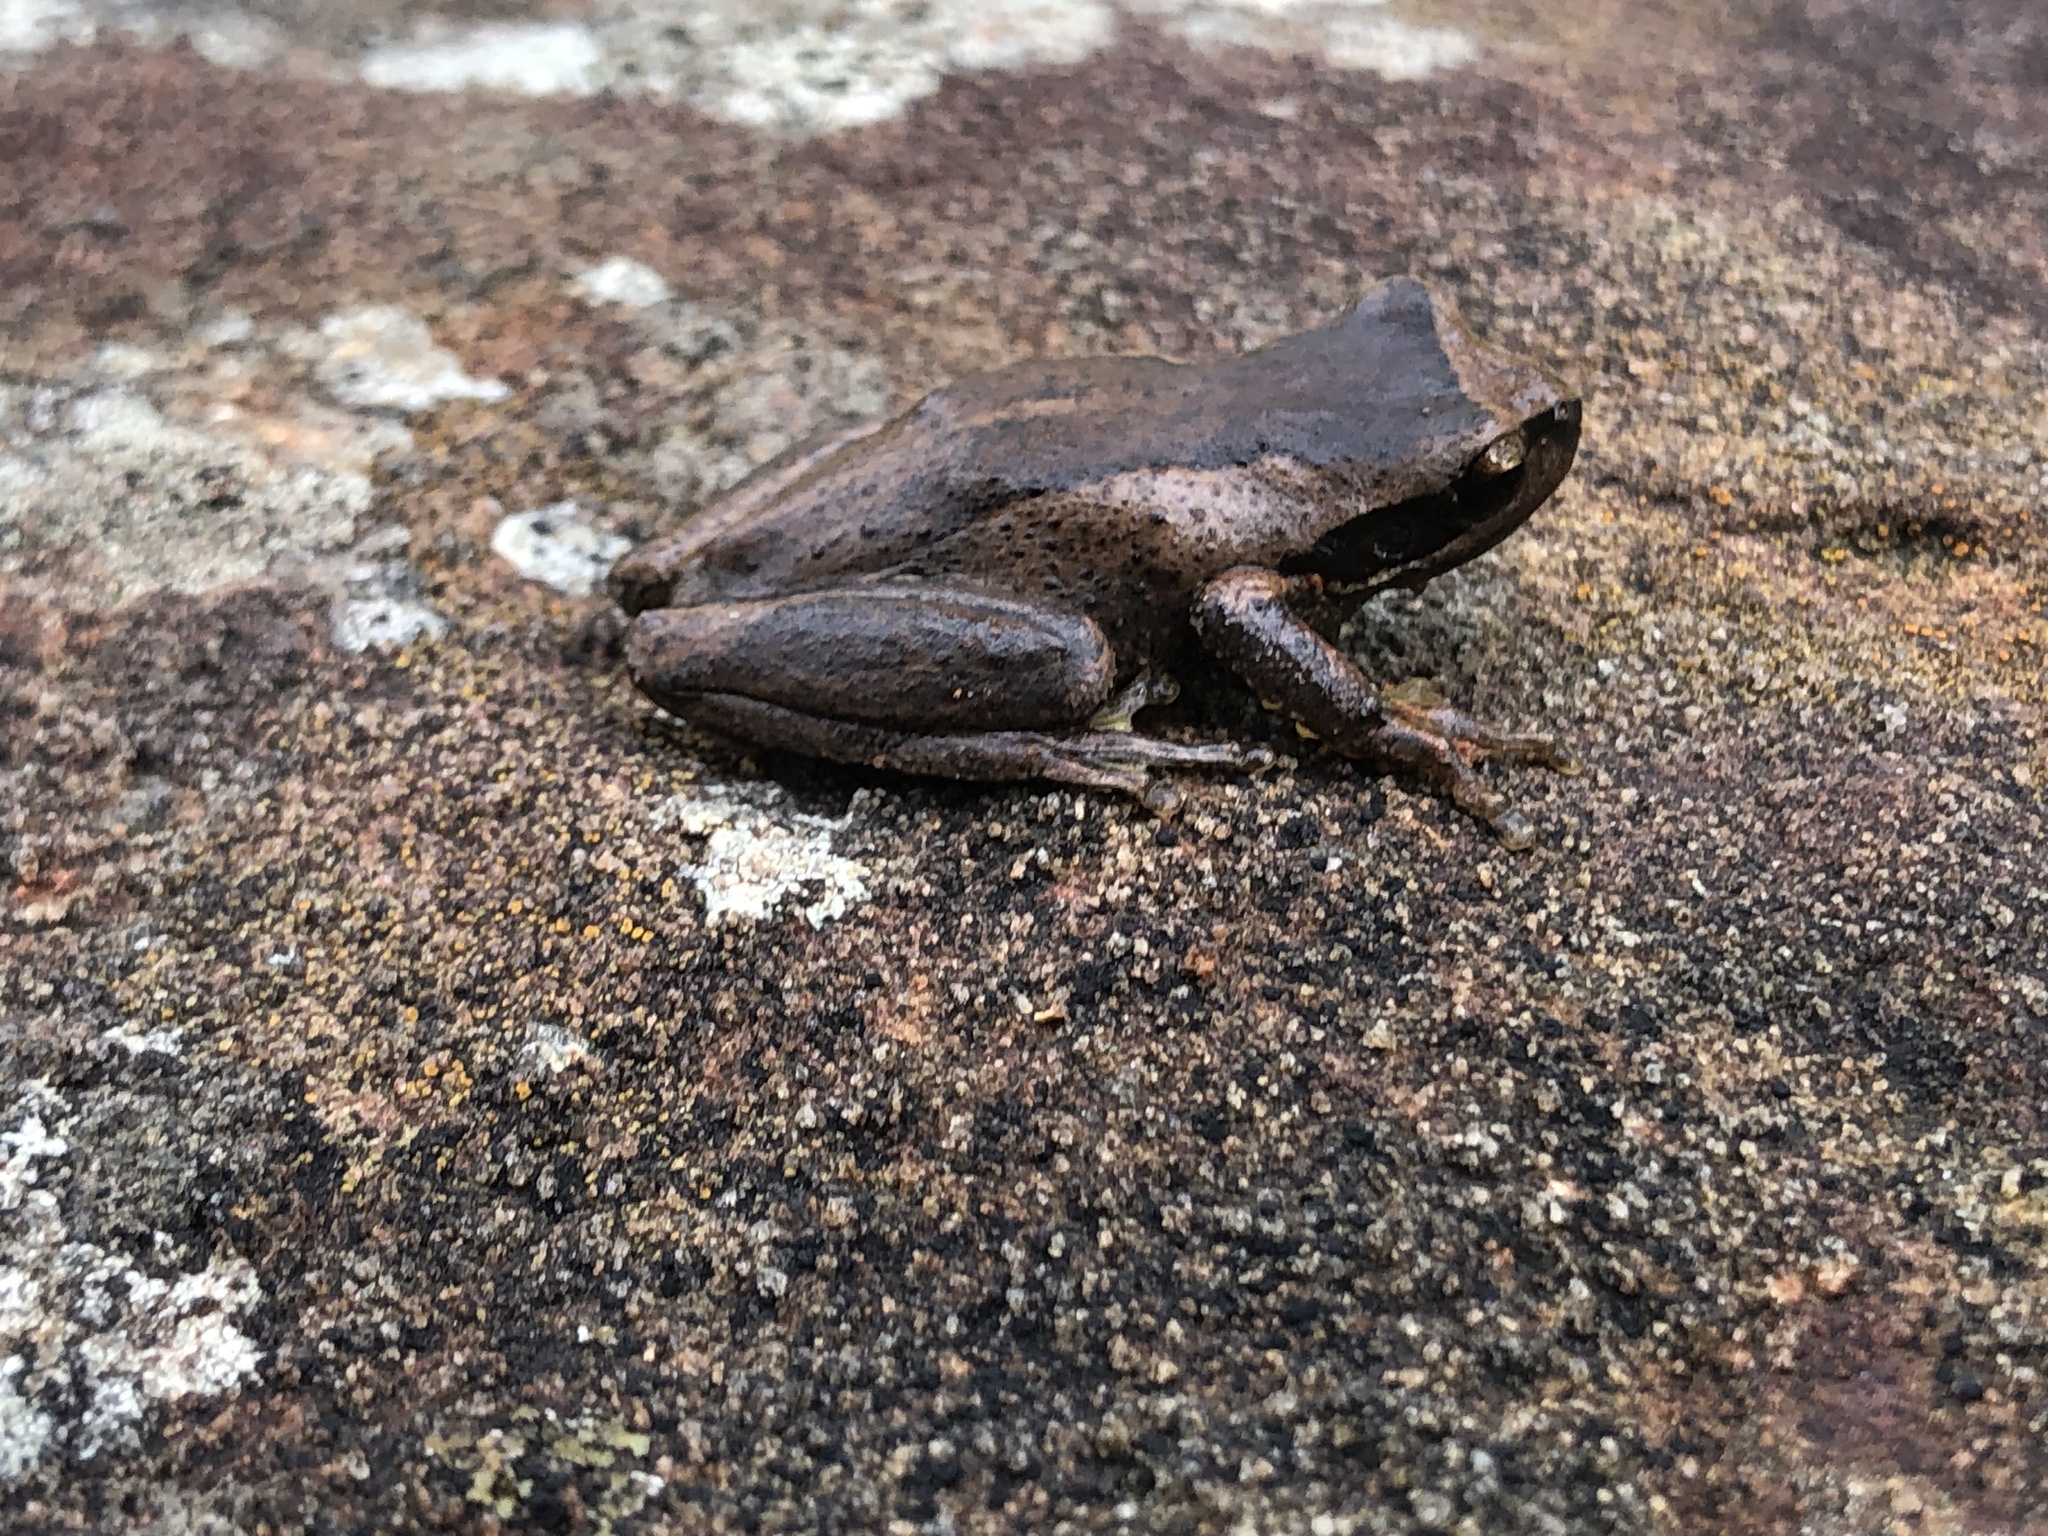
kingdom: Animalia
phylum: Chordata
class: Amphibia
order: Anura
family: Pelodryadidae
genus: Litoria
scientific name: Litoria
